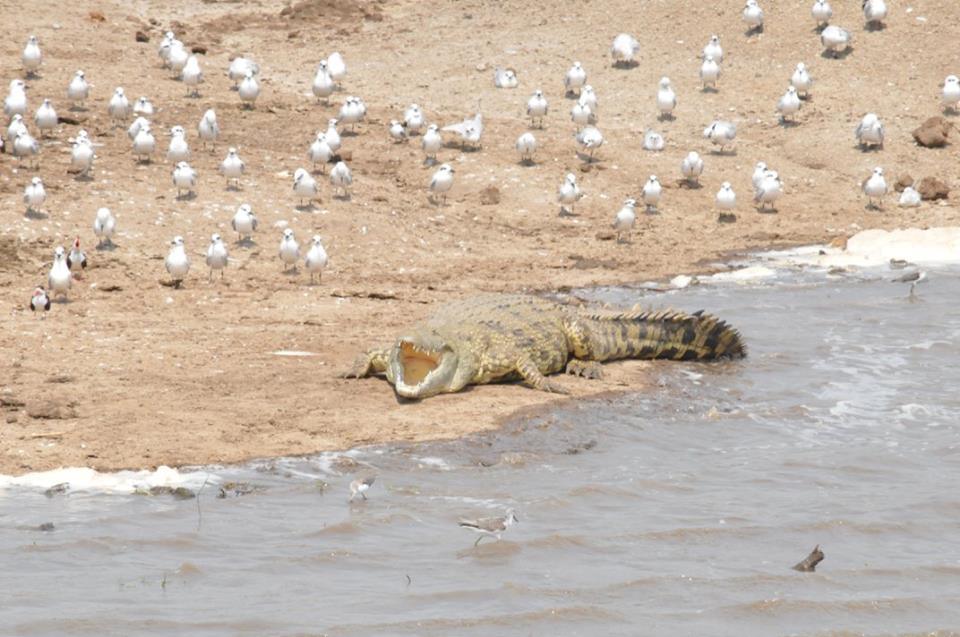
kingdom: Animalia
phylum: Chordata
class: Crocodylia
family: Crocodylidae
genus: Crocodylus
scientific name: Crocodylus niloticus
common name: Nile crocodile
